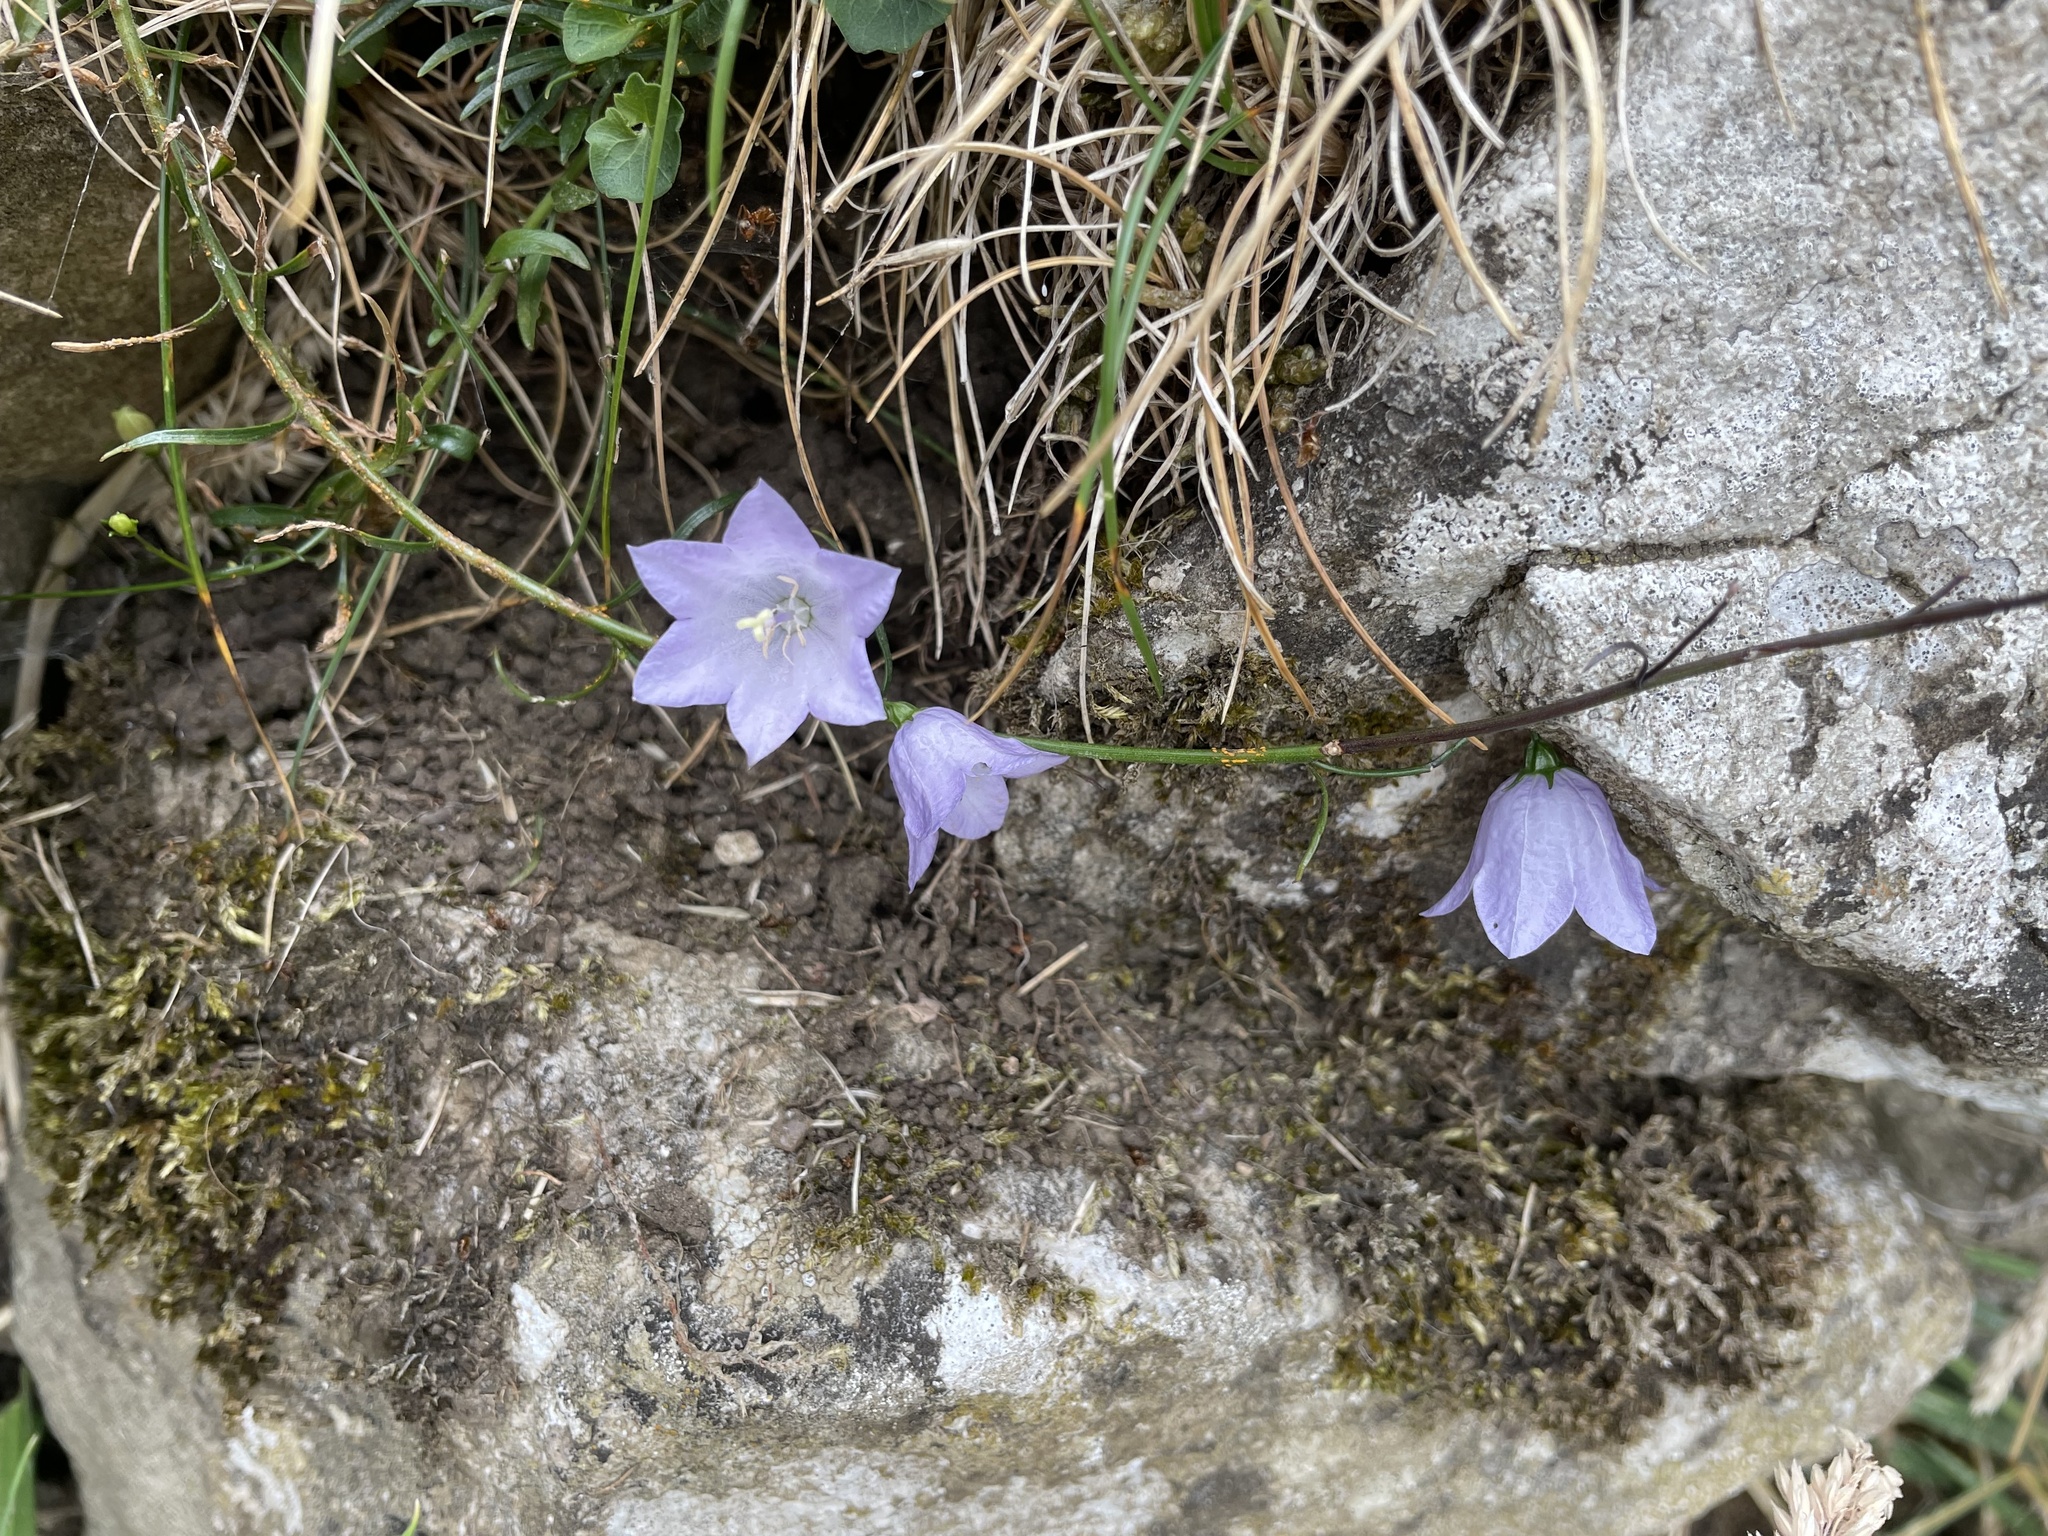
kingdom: Plantae
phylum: Tracheophyta
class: Magnoliopsida
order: Asterales
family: Campanulaceae
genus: Campanula
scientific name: Campanula rotundifolia
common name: Harebell
